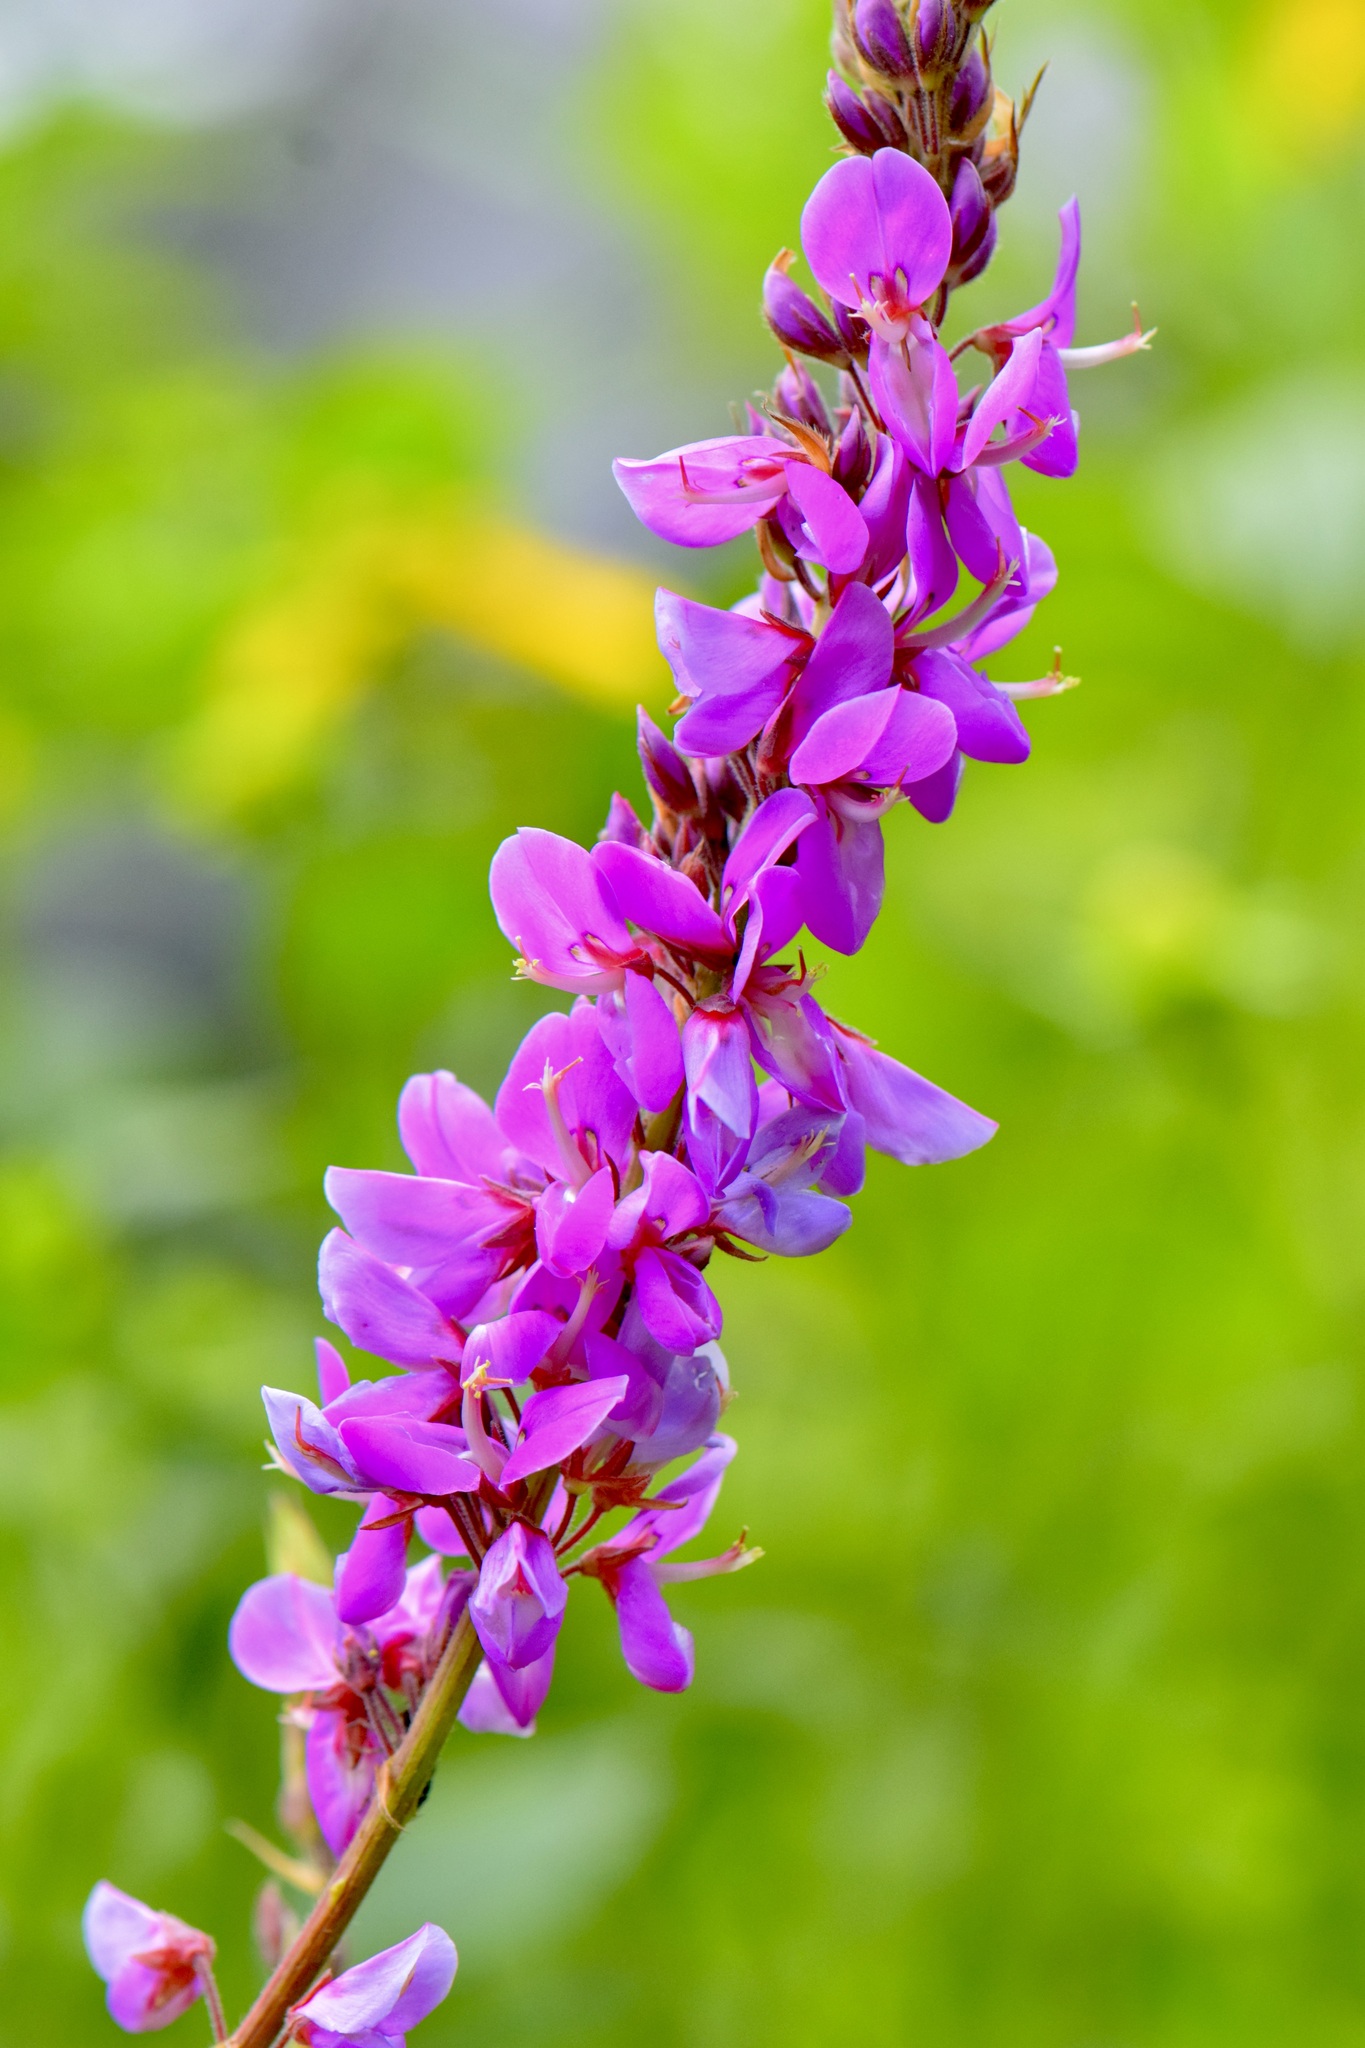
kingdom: Plantae
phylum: Tracheophyta
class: Magnoliopsida
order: Fabales
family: Fabaceae
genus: Desmodium
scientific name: Desmodium canadense
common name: Canada tick-trefoil
